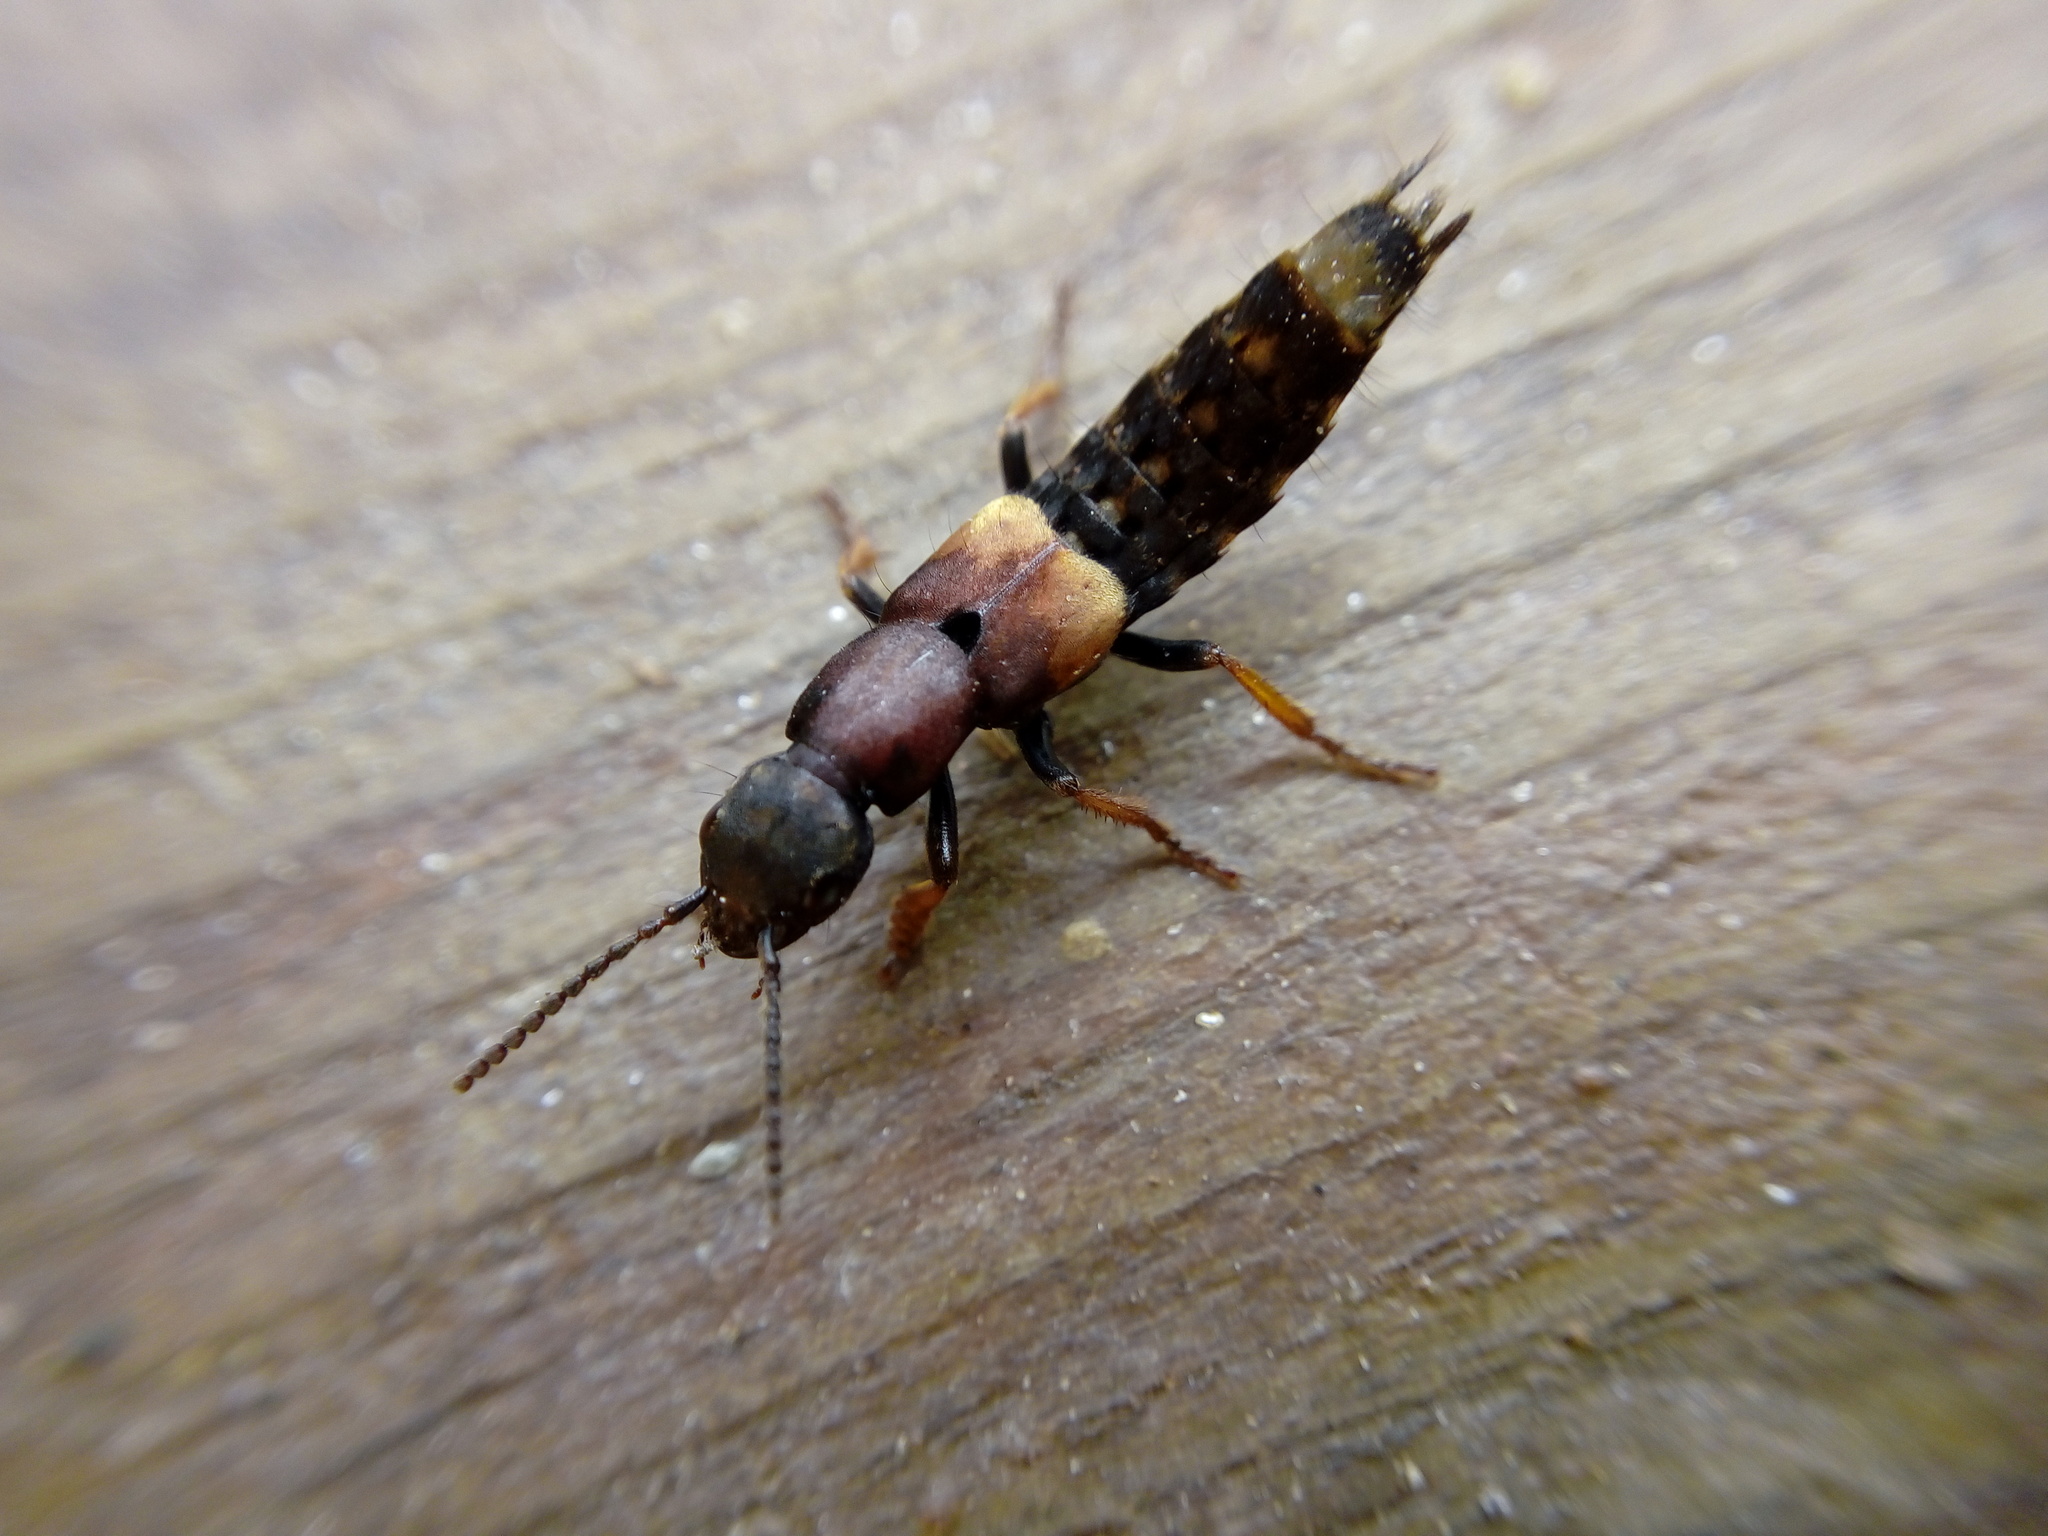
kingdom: Animalia
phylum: Arthropoda
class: Insecta
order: Coleoptera
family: Staphylinidae
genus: Dinothenarus
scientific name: Dinothenarus fossor
